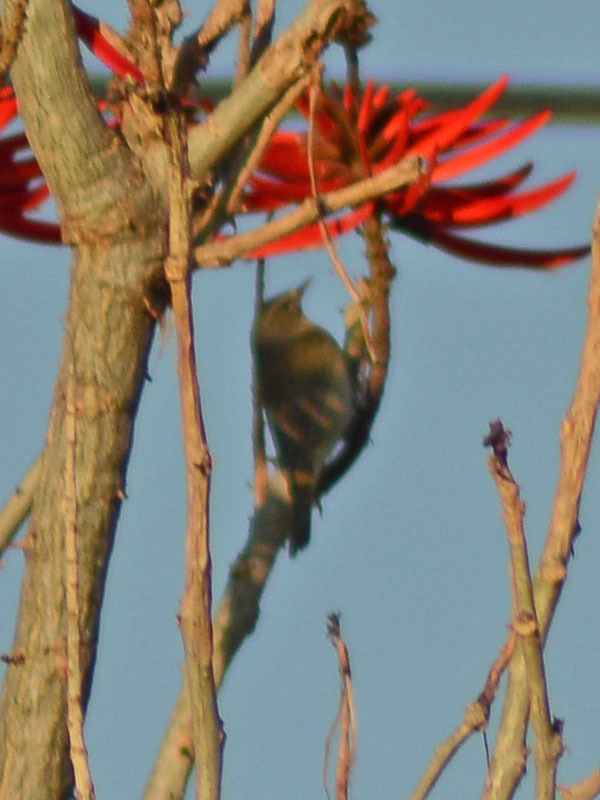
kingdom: Animalia
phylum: Chordata
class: Aves
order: Passeriformes
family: Parulidae
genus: Leiothlypis
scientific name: Leiothlypis celata
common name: Orange-crowned warbler
